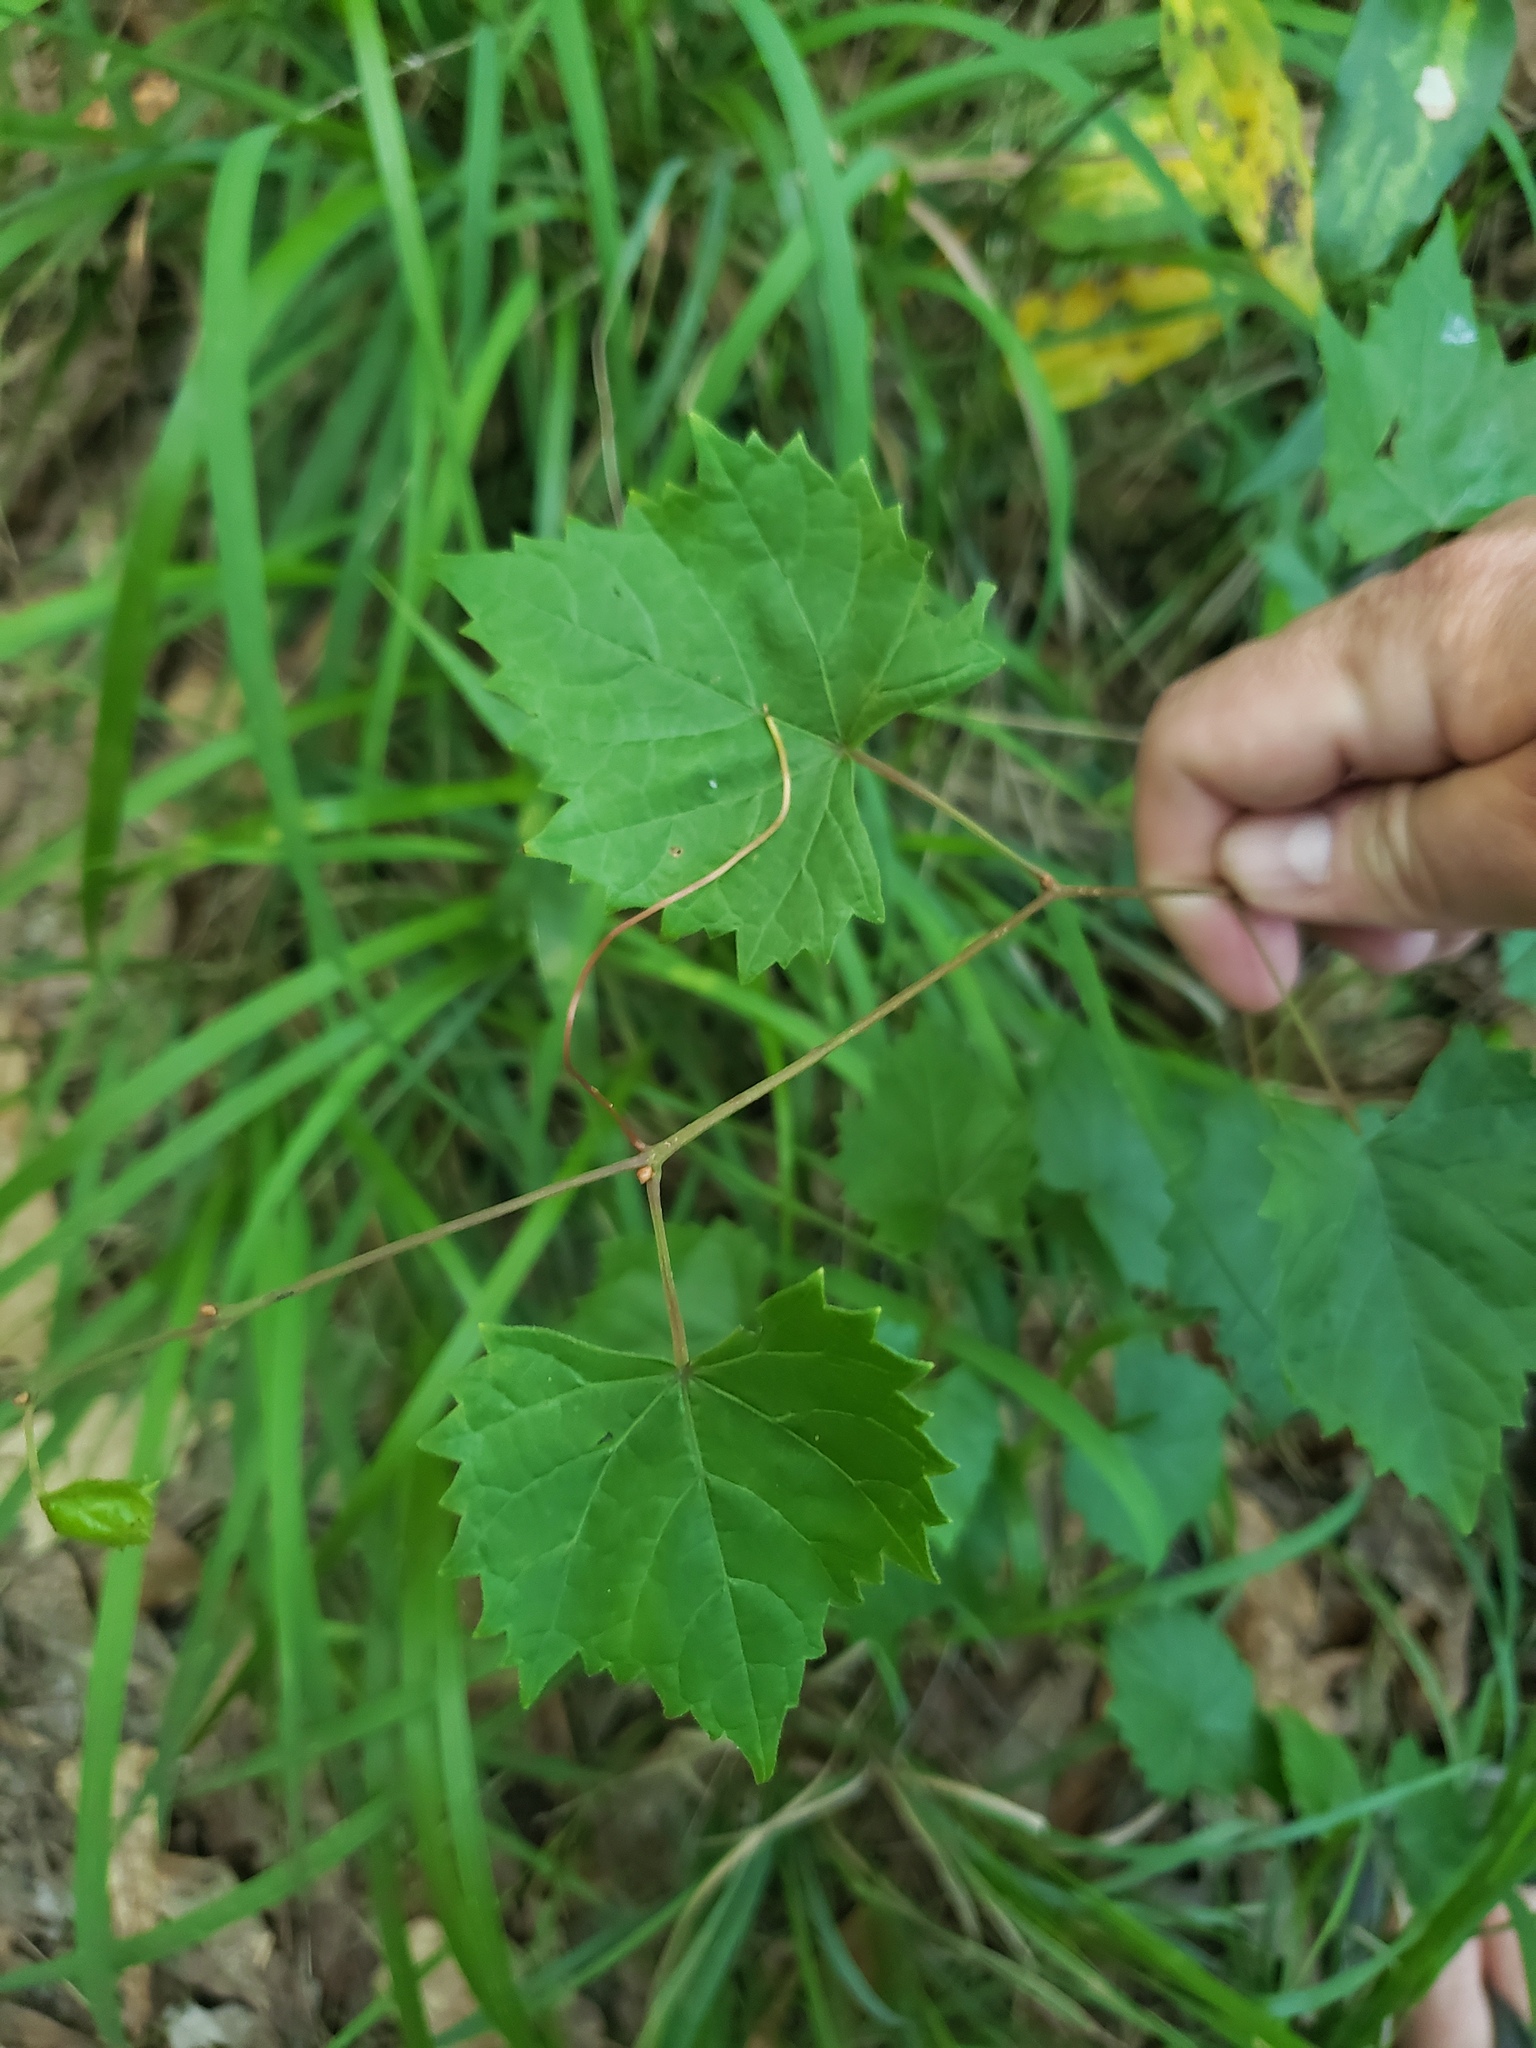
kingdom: Plantae
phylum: Tracheophyta
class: Magnoliopsida
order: Vitales
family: Vitaceae
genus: Vitis
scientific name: Vitis rotundifolia
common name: Muscadine grape
